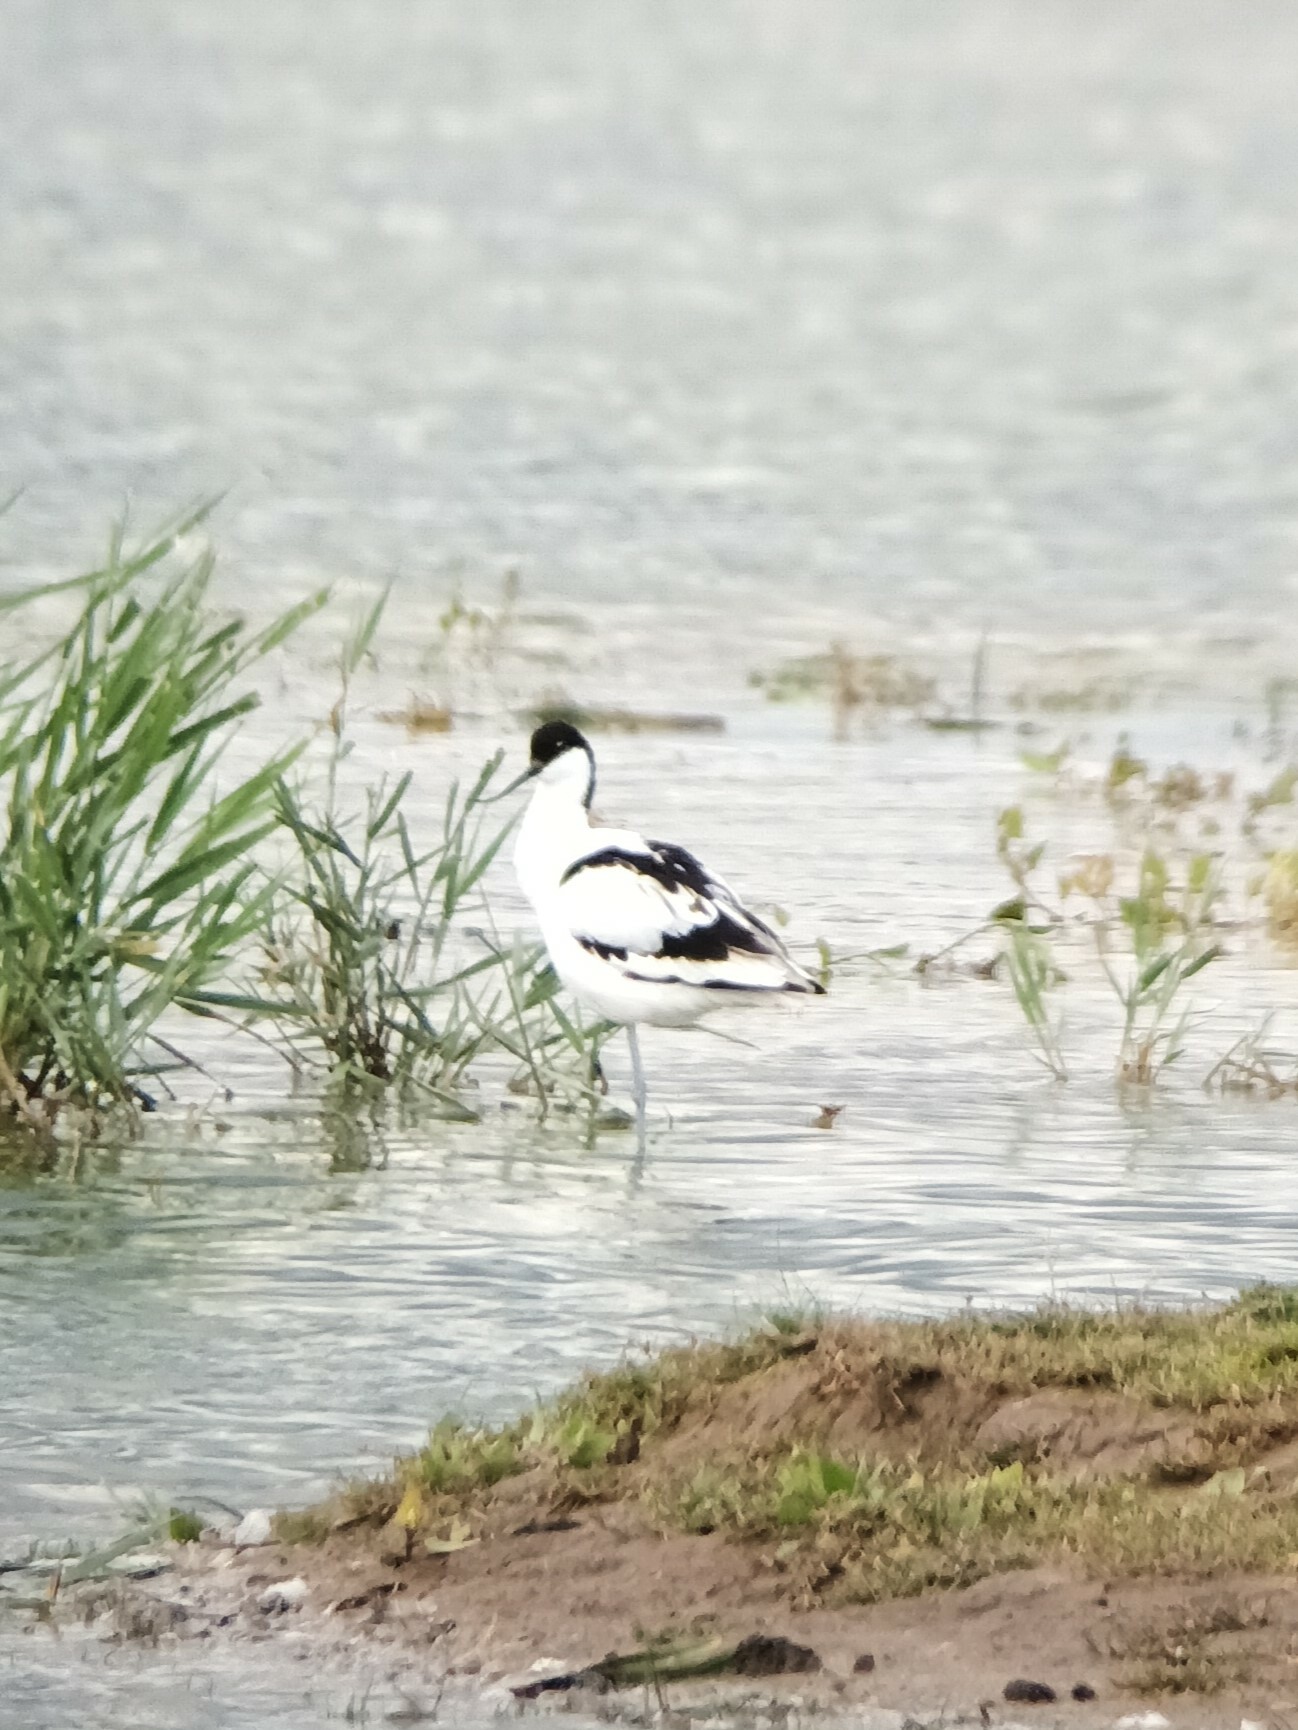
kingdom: Animalia
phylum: Chordata
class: Aves
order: Charadriiformes
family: Recurvirostridae
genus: Recurvirostra
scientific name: Recurvirostra avosetta
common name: Pied avocet
